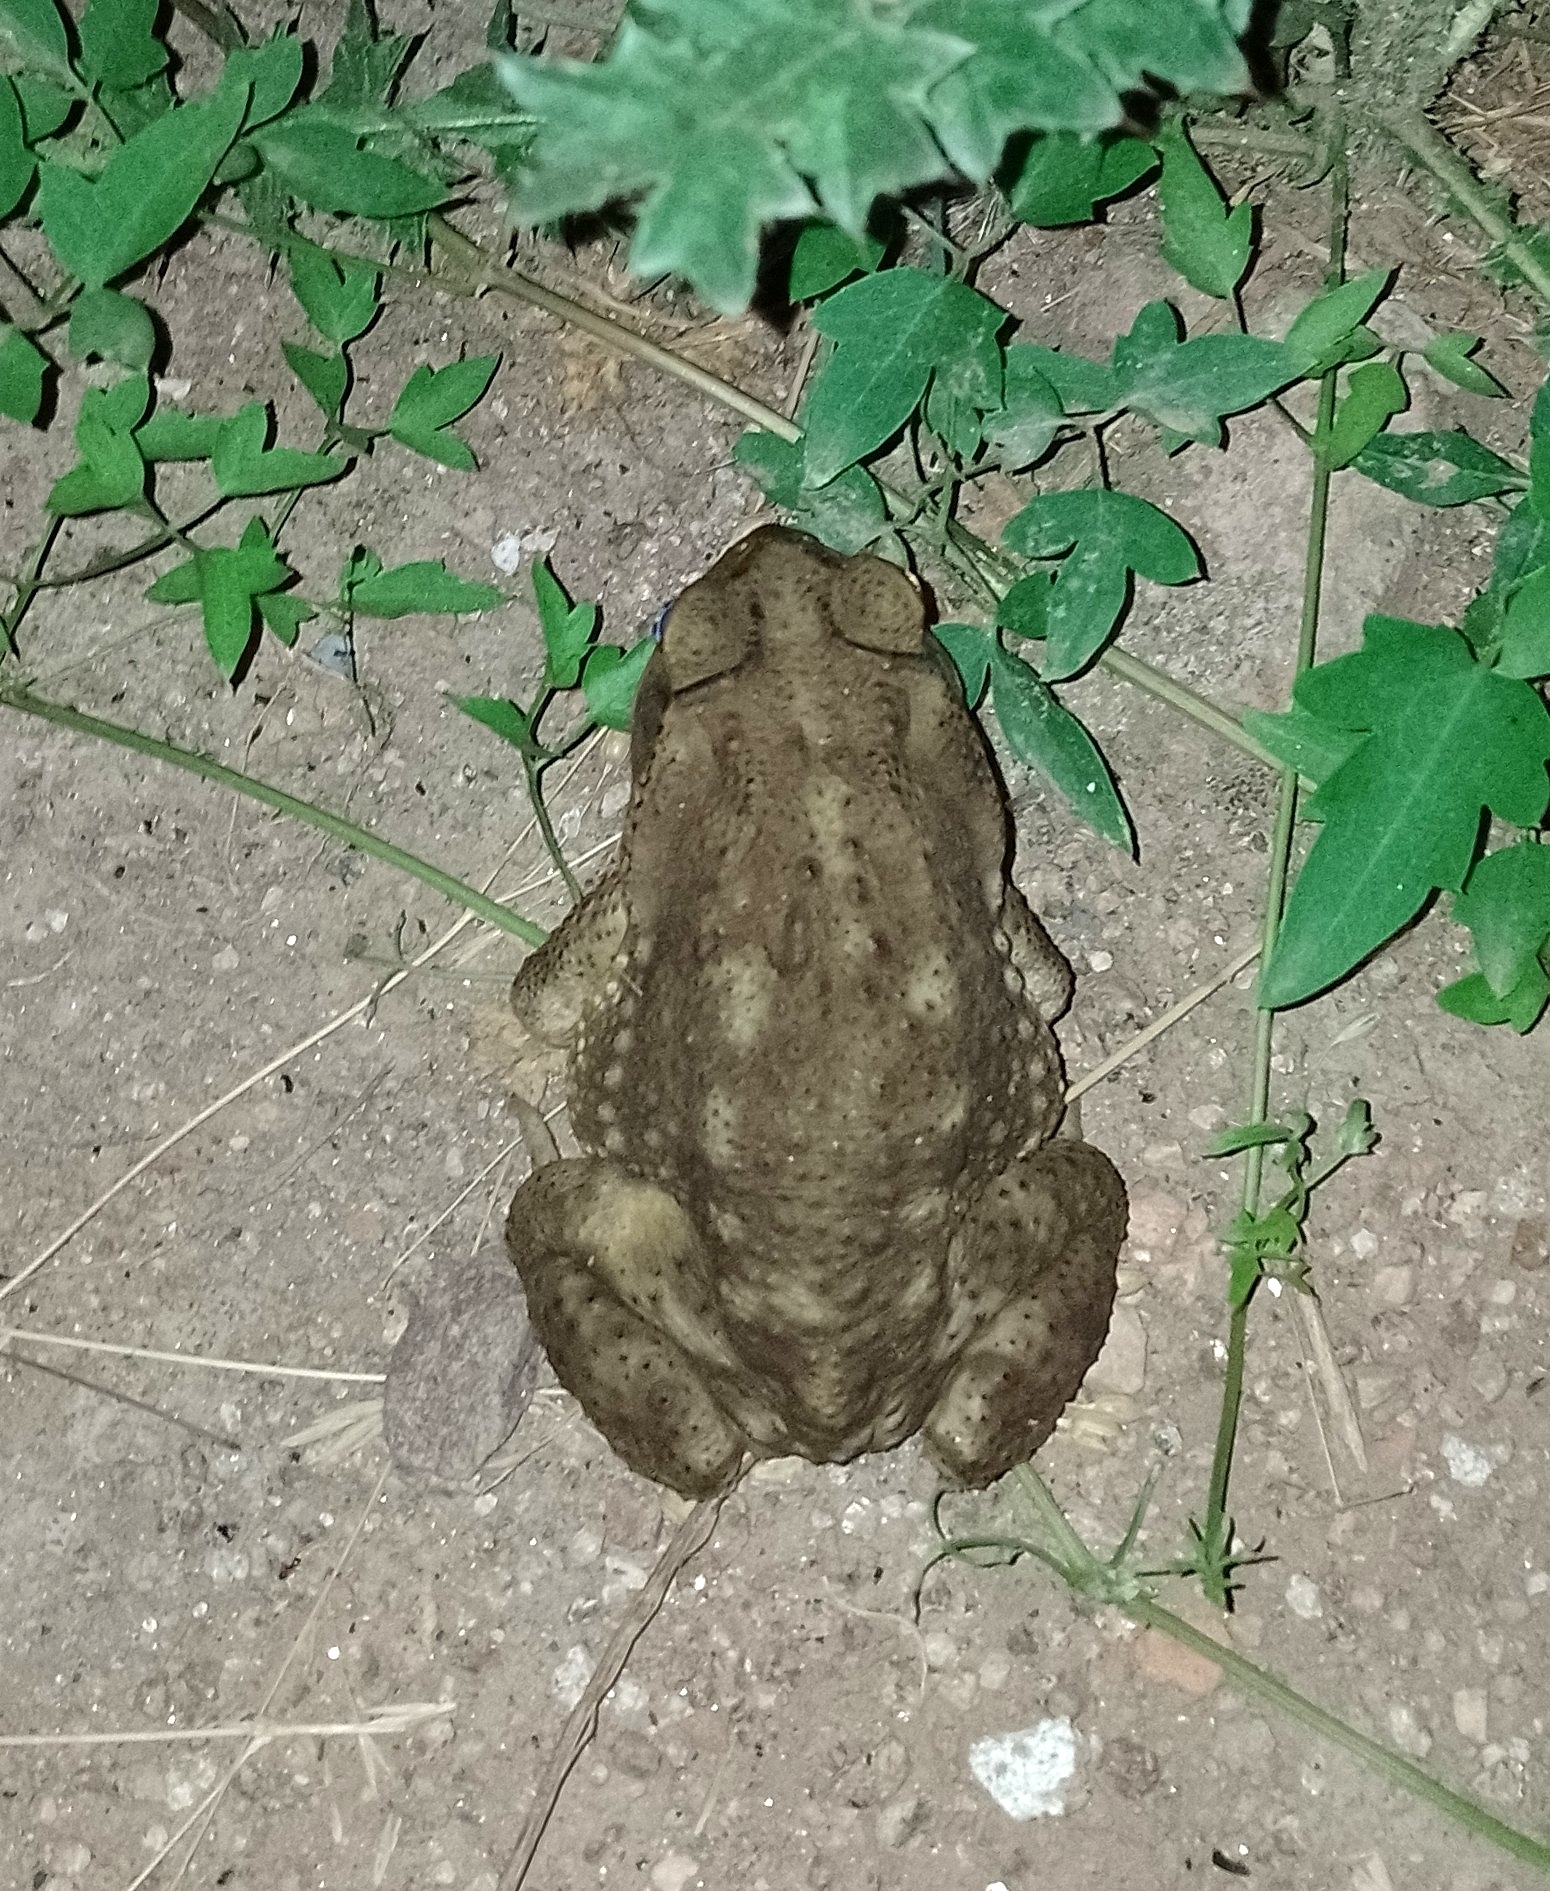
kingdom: Animalia
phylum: Chordata
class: Amphibia
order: Anura
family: Bufonidae
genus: Rhinella
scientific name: Rhinella arenarum
